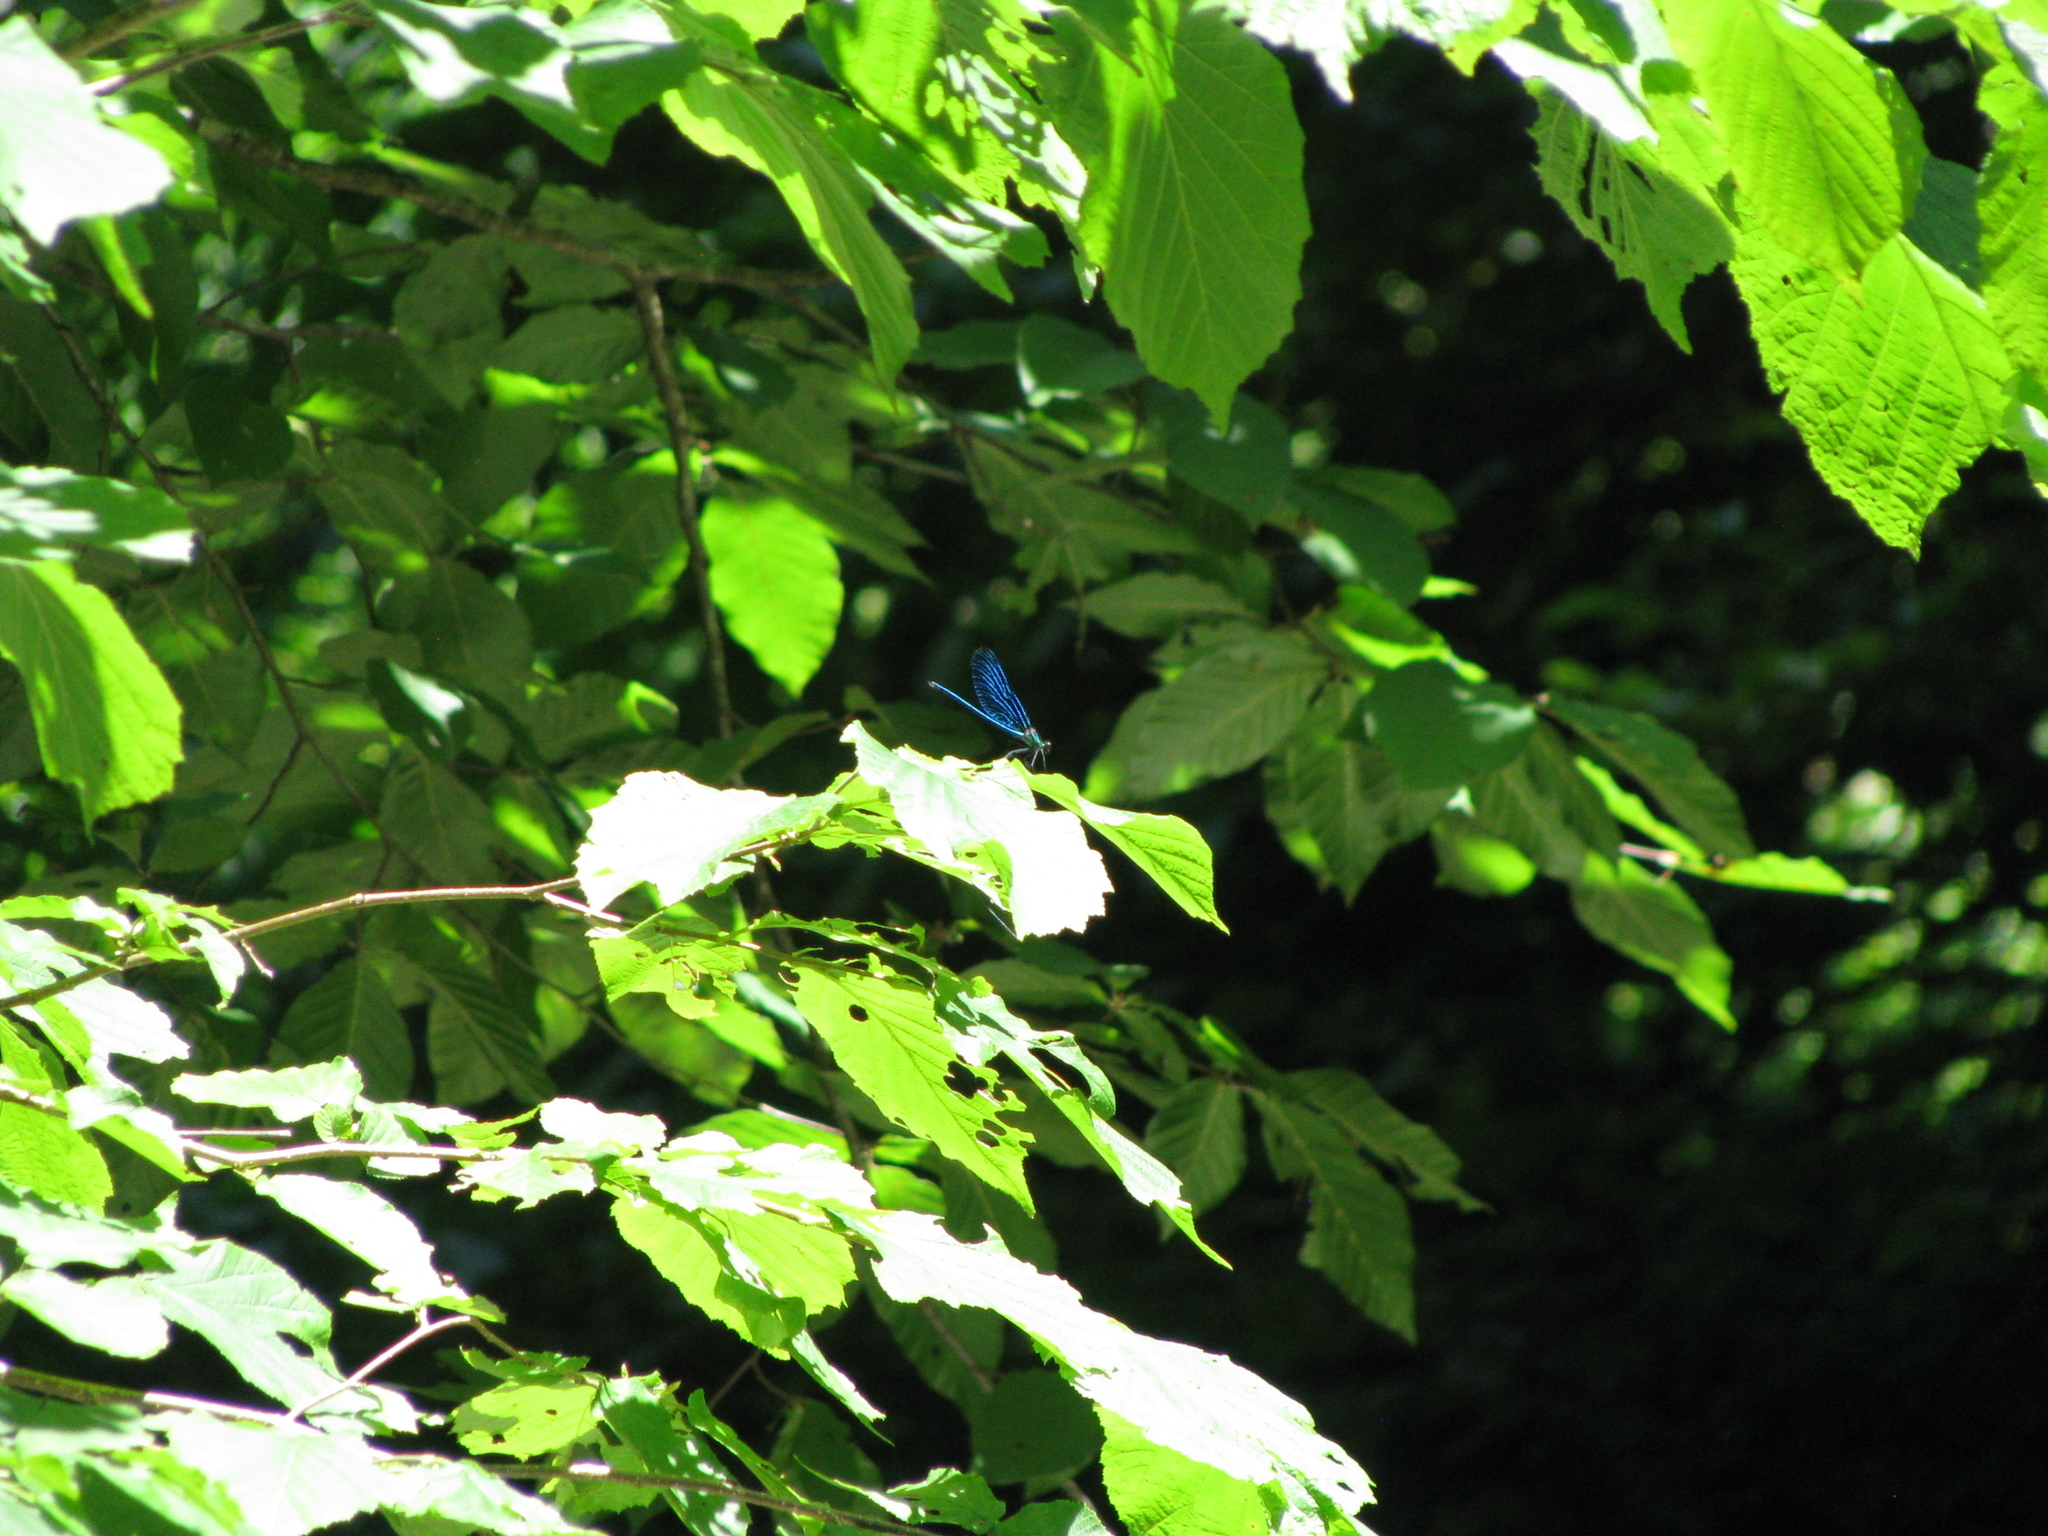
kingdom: Animalia
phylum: Arthropoda
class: Insecta
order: Odonata
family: Calopterygidae
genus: Calopteryx
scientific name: Calopteryx virgo
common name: Beautiful demoiselle
